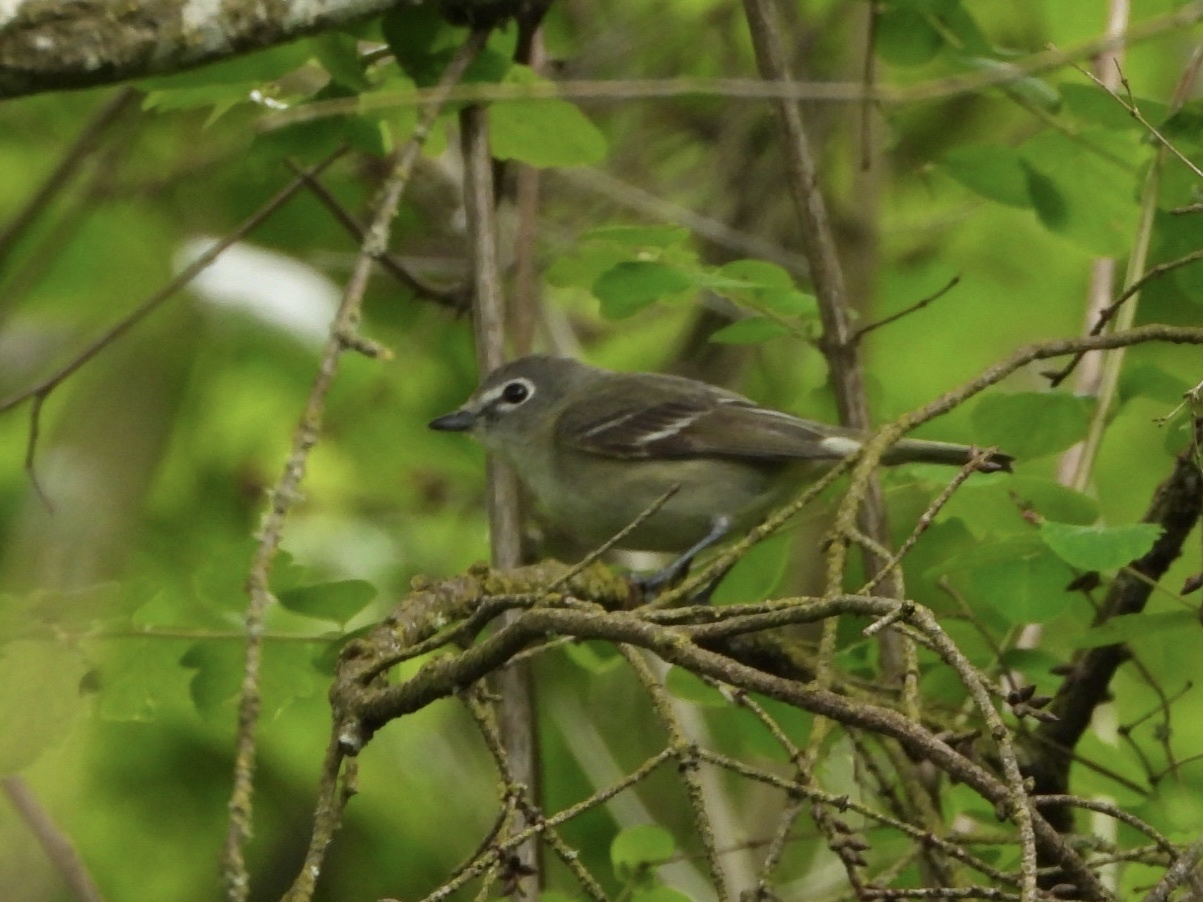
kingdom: Animalia
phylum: Chordata
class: Aves
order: Passeriformes
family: Vireonidae
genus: Vireo
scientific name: Vireo cassinii
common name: Cassin's vireo
